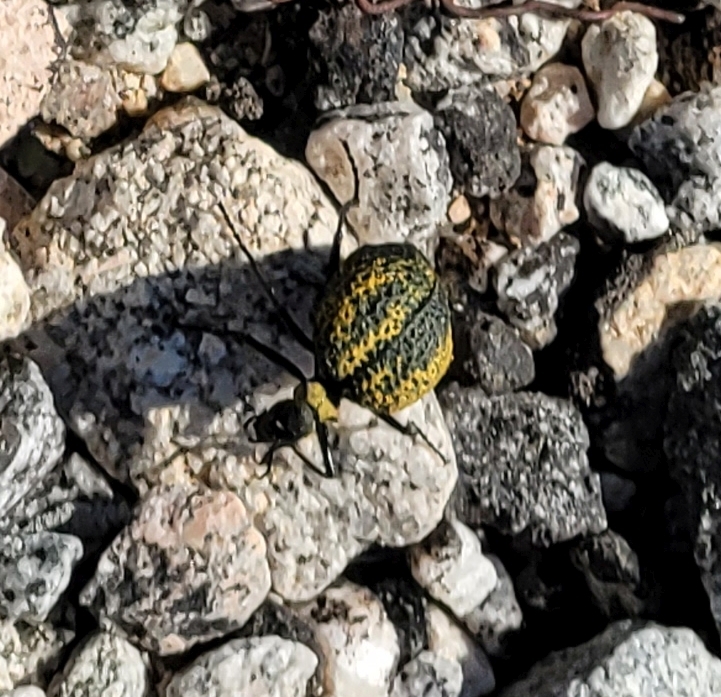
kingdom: Animalia
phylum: Arthropoda
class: Insecta
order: Coleoptera
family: Meloidae
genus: Cysteodemus
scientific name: Cysteodemus armatus
